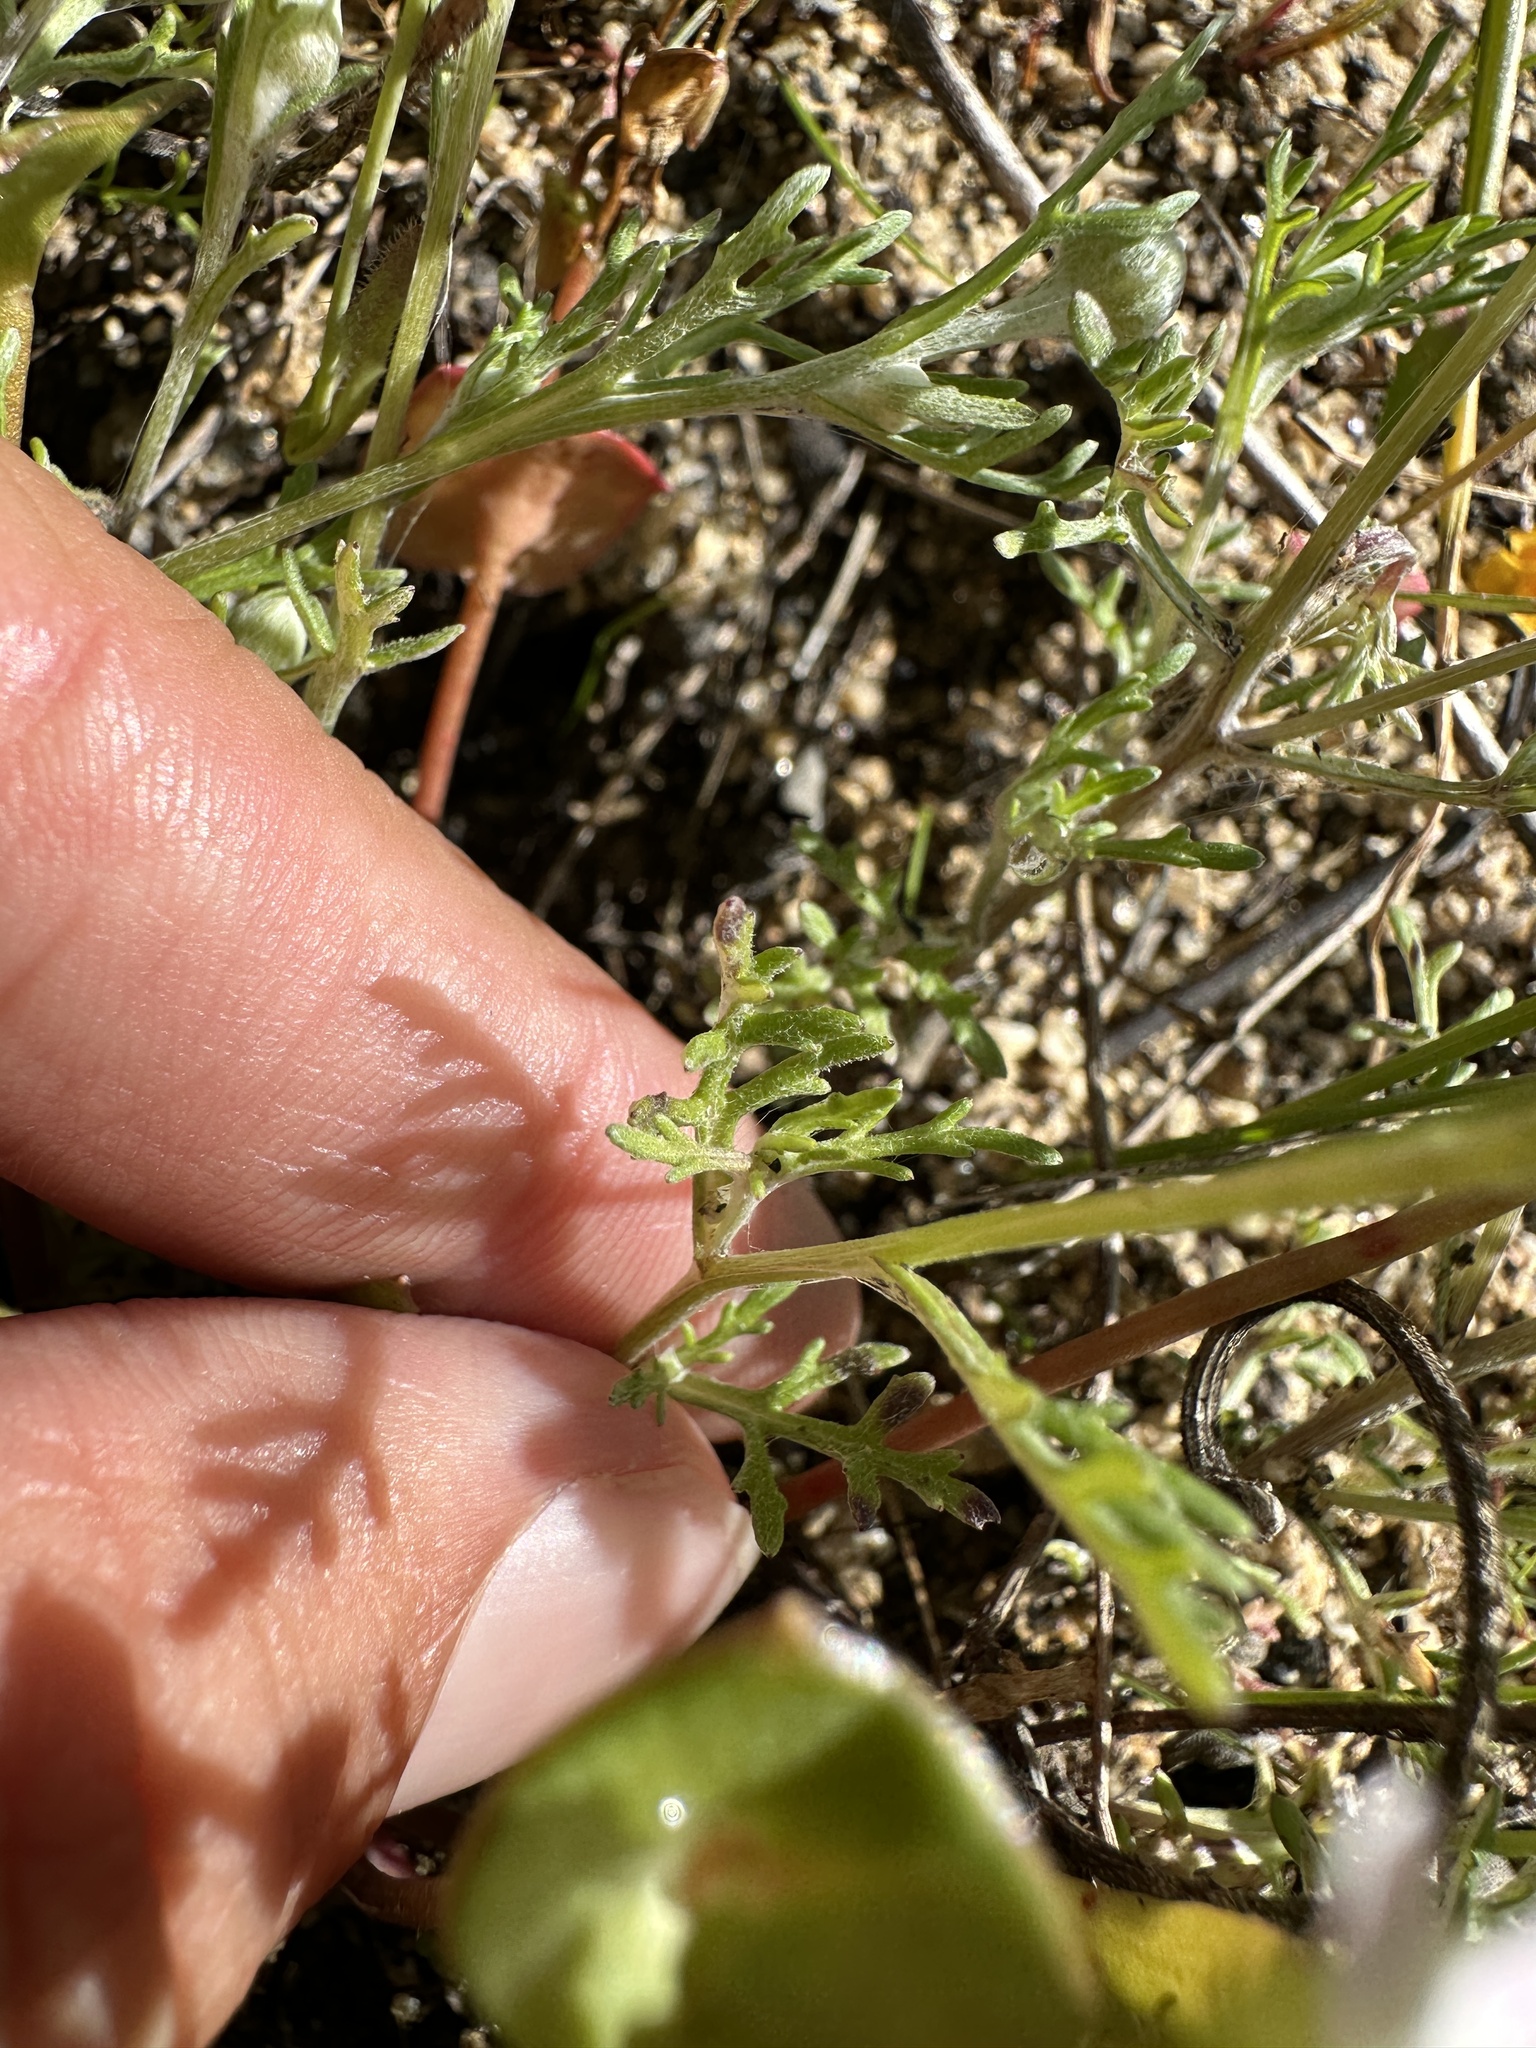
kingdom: Plantae
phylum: Tracheophyta
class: Magnoliopsida
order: Asterales
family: Asteraceae
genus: Pseudobahia
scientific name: Pseudobahia heermannii
